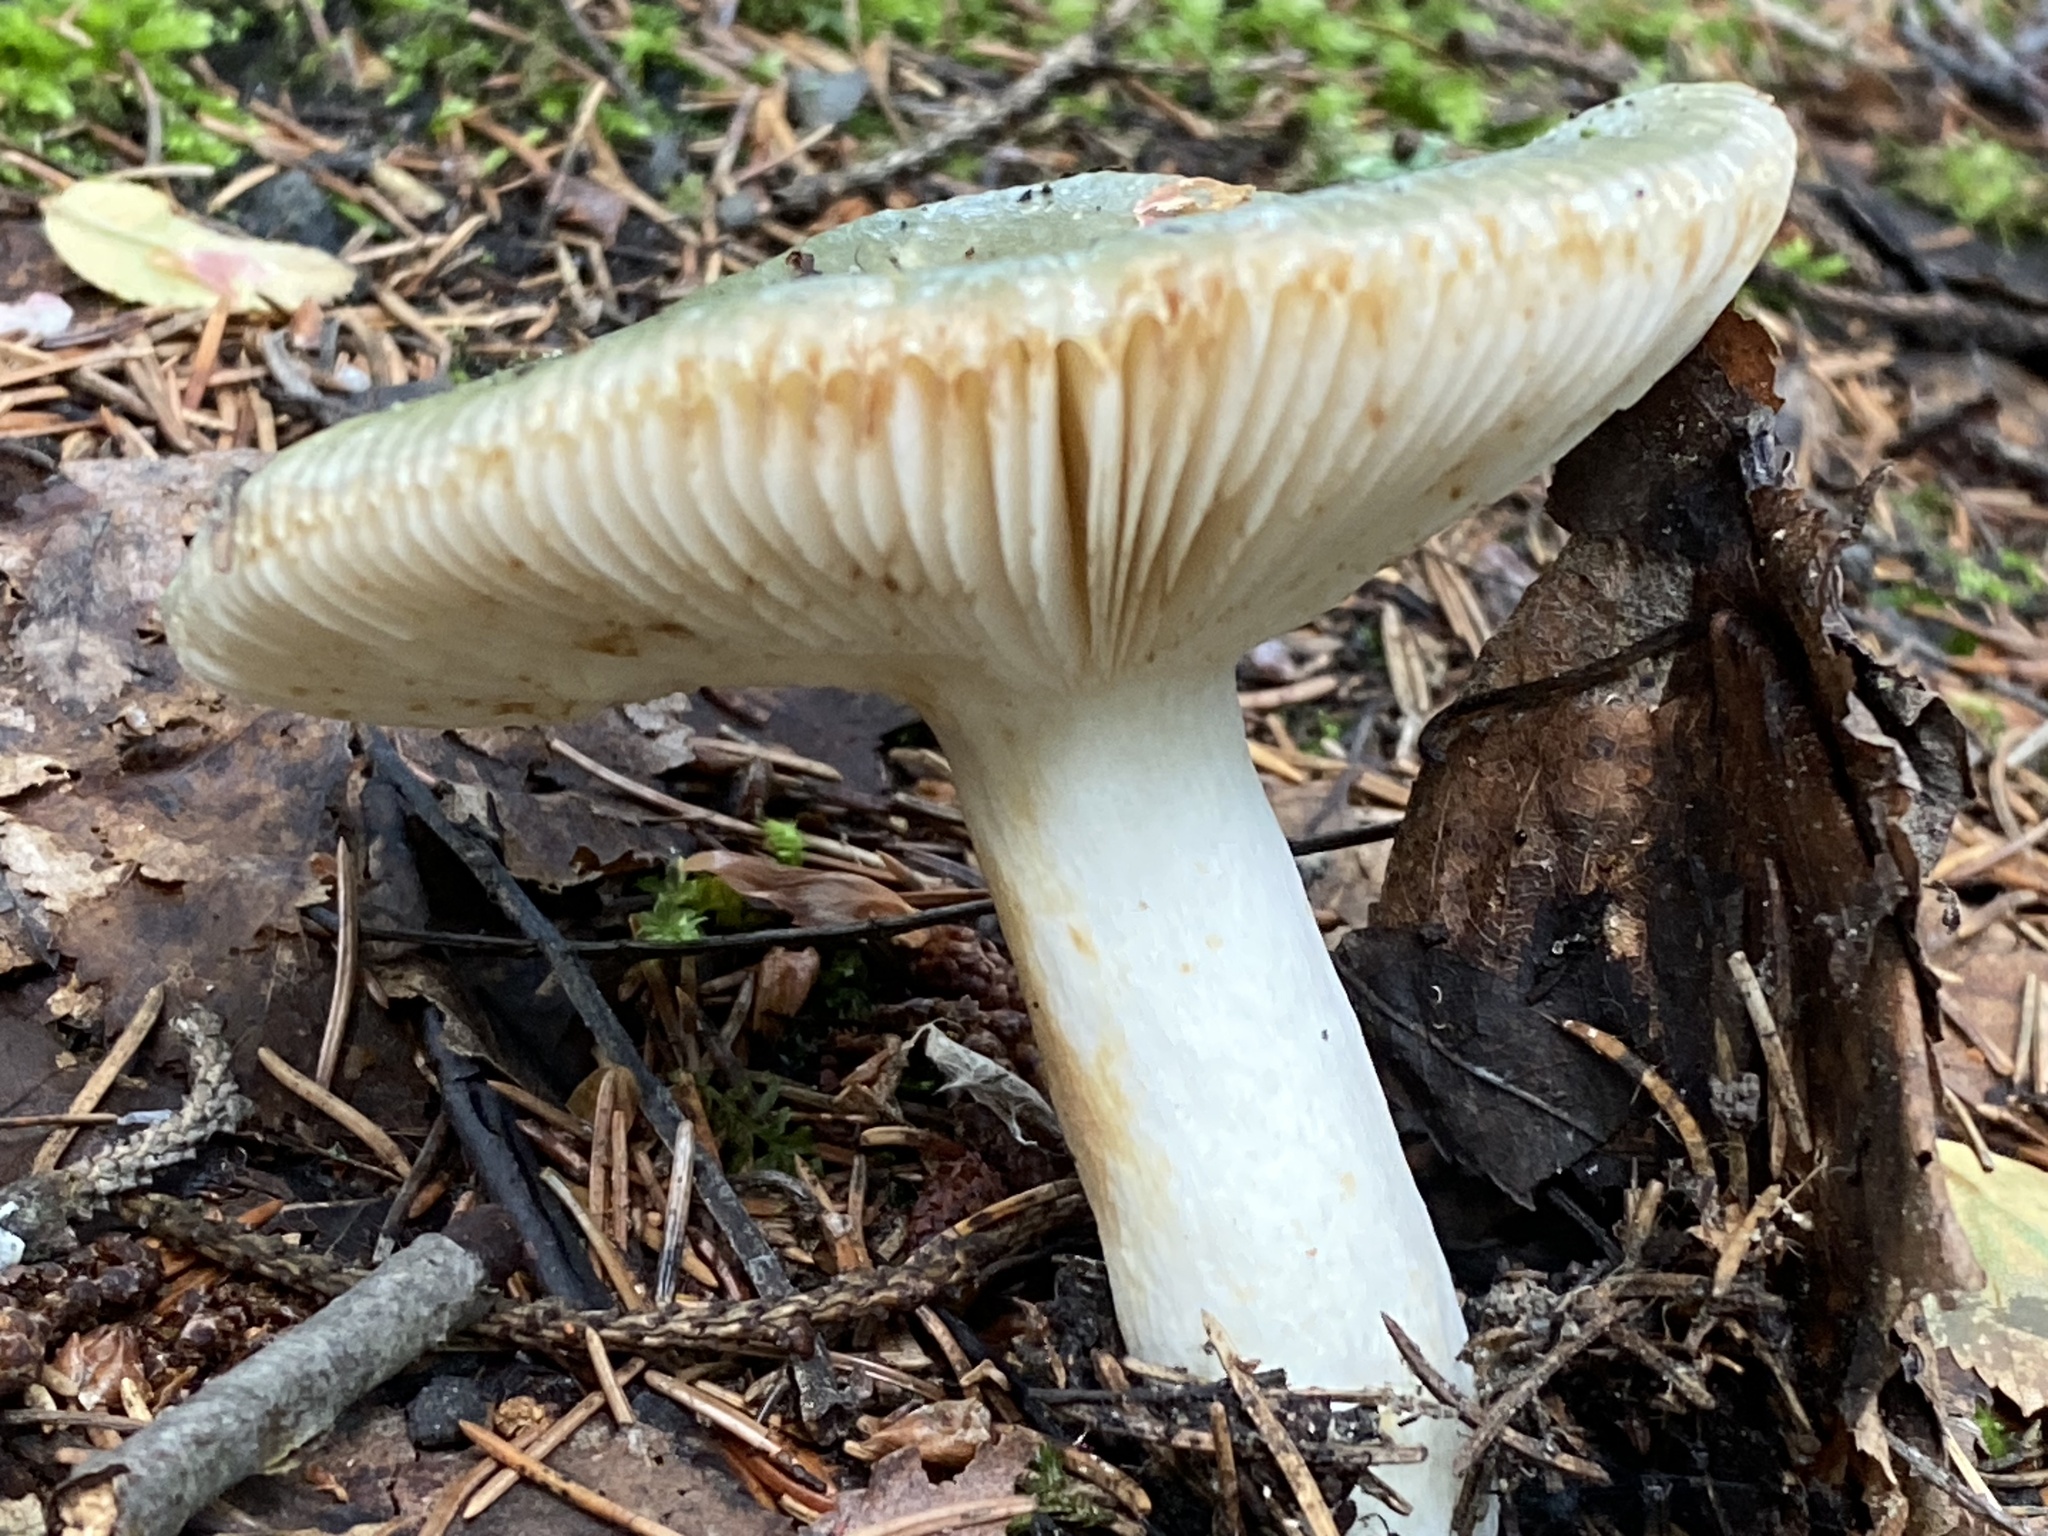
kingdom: Fungi
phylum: Basidiomycota
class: Agaricomycetes
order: Russulales
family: Russulaceae
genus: Russula
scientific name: Russula aeruginea
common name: Green brittlegill
